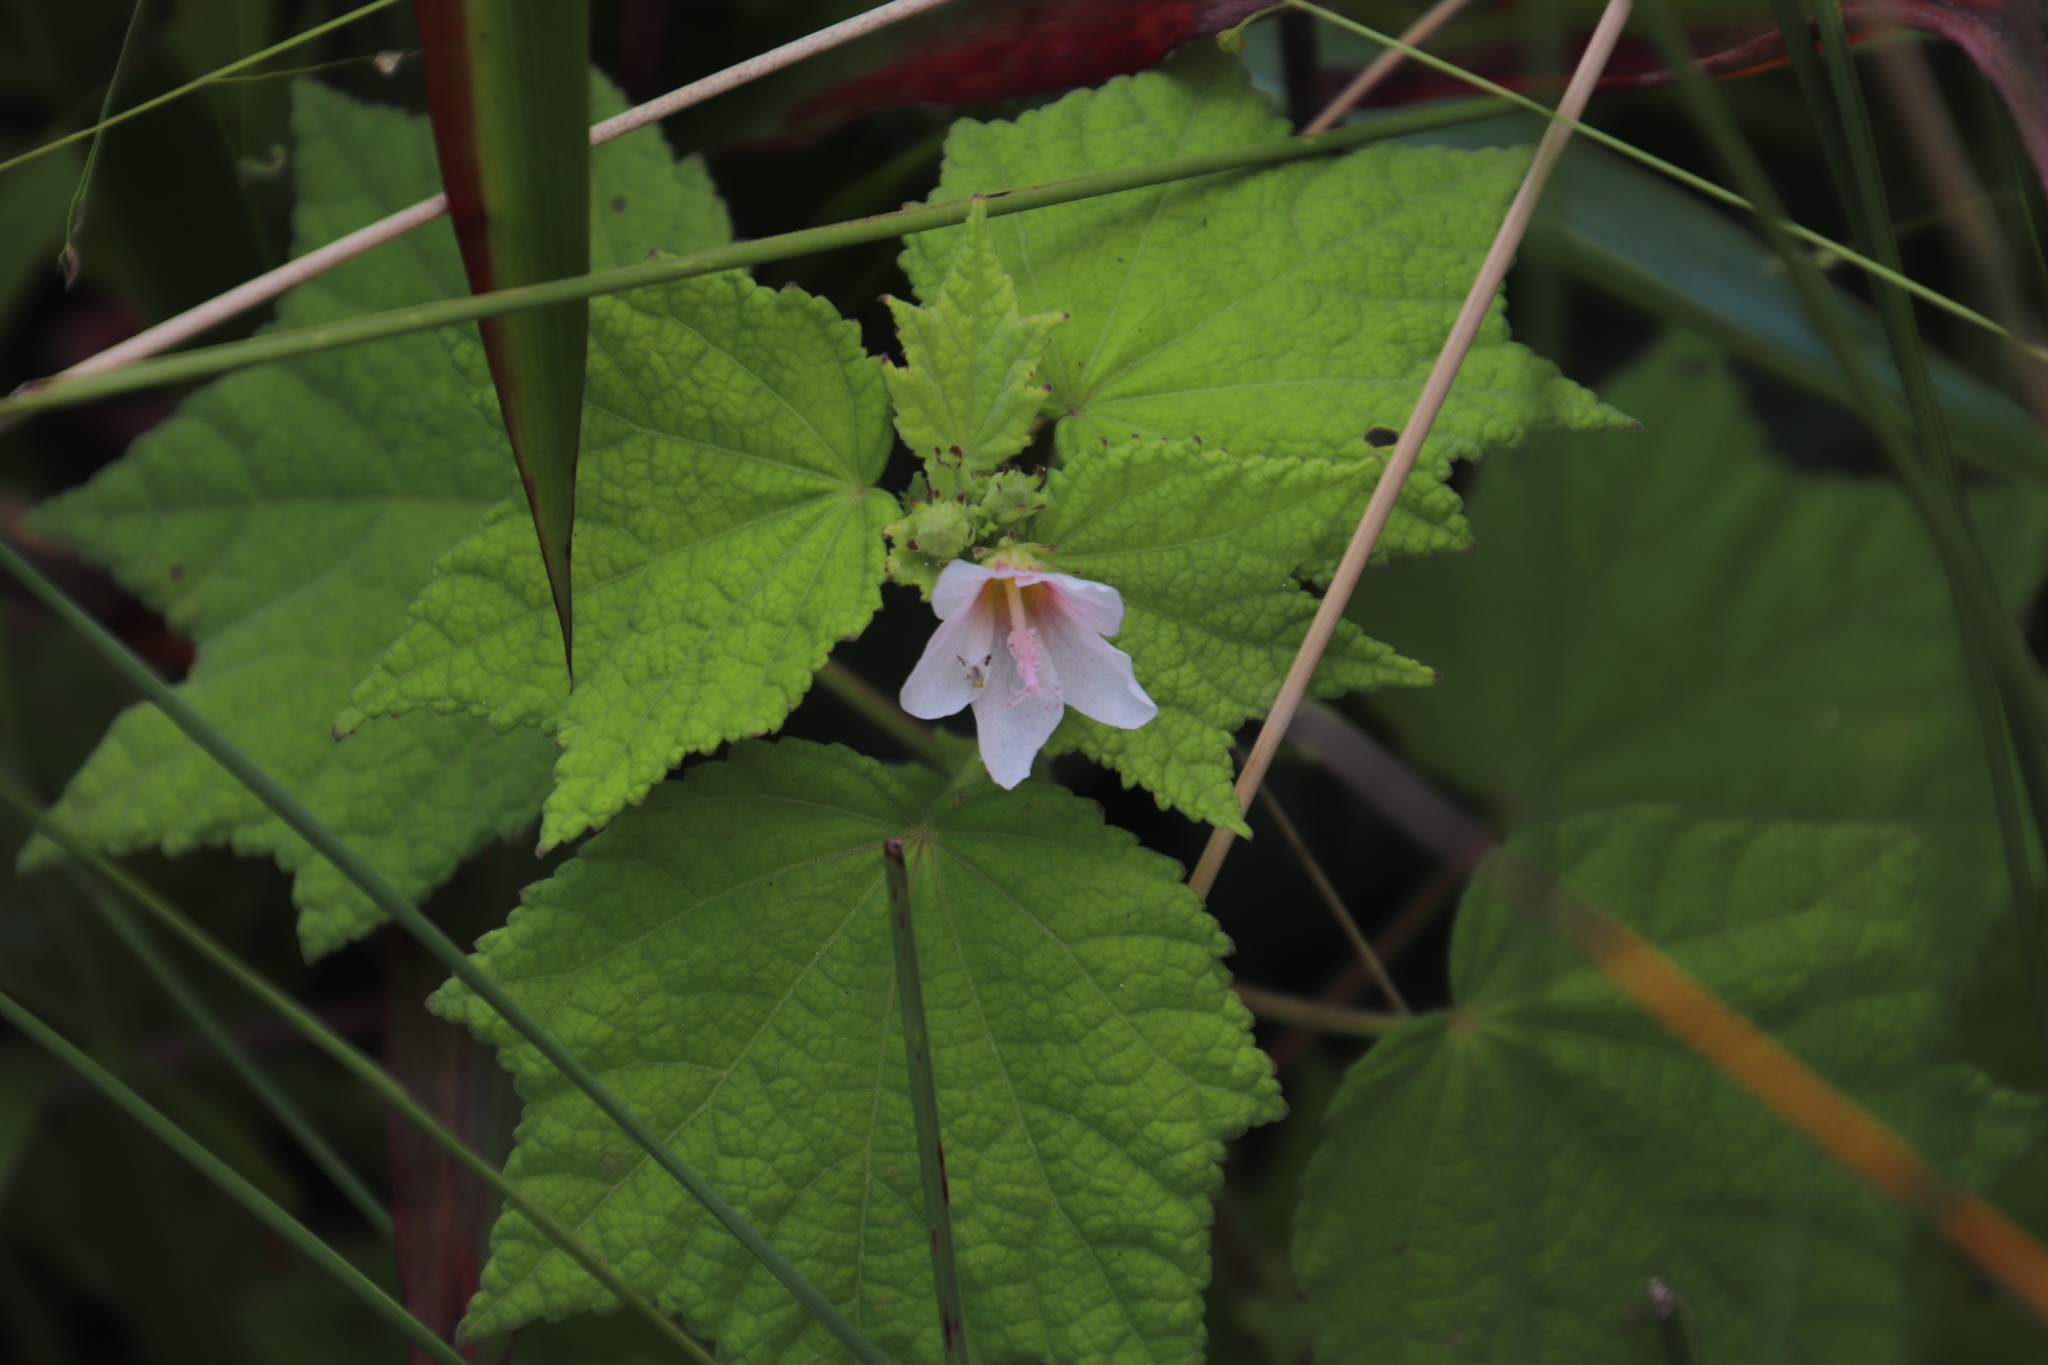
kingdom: Plantae
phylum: Tracheophyta
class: Magnoliopsida
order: Malvales
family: Malvaceae
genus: Pavonia
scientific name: Pavonia columella
